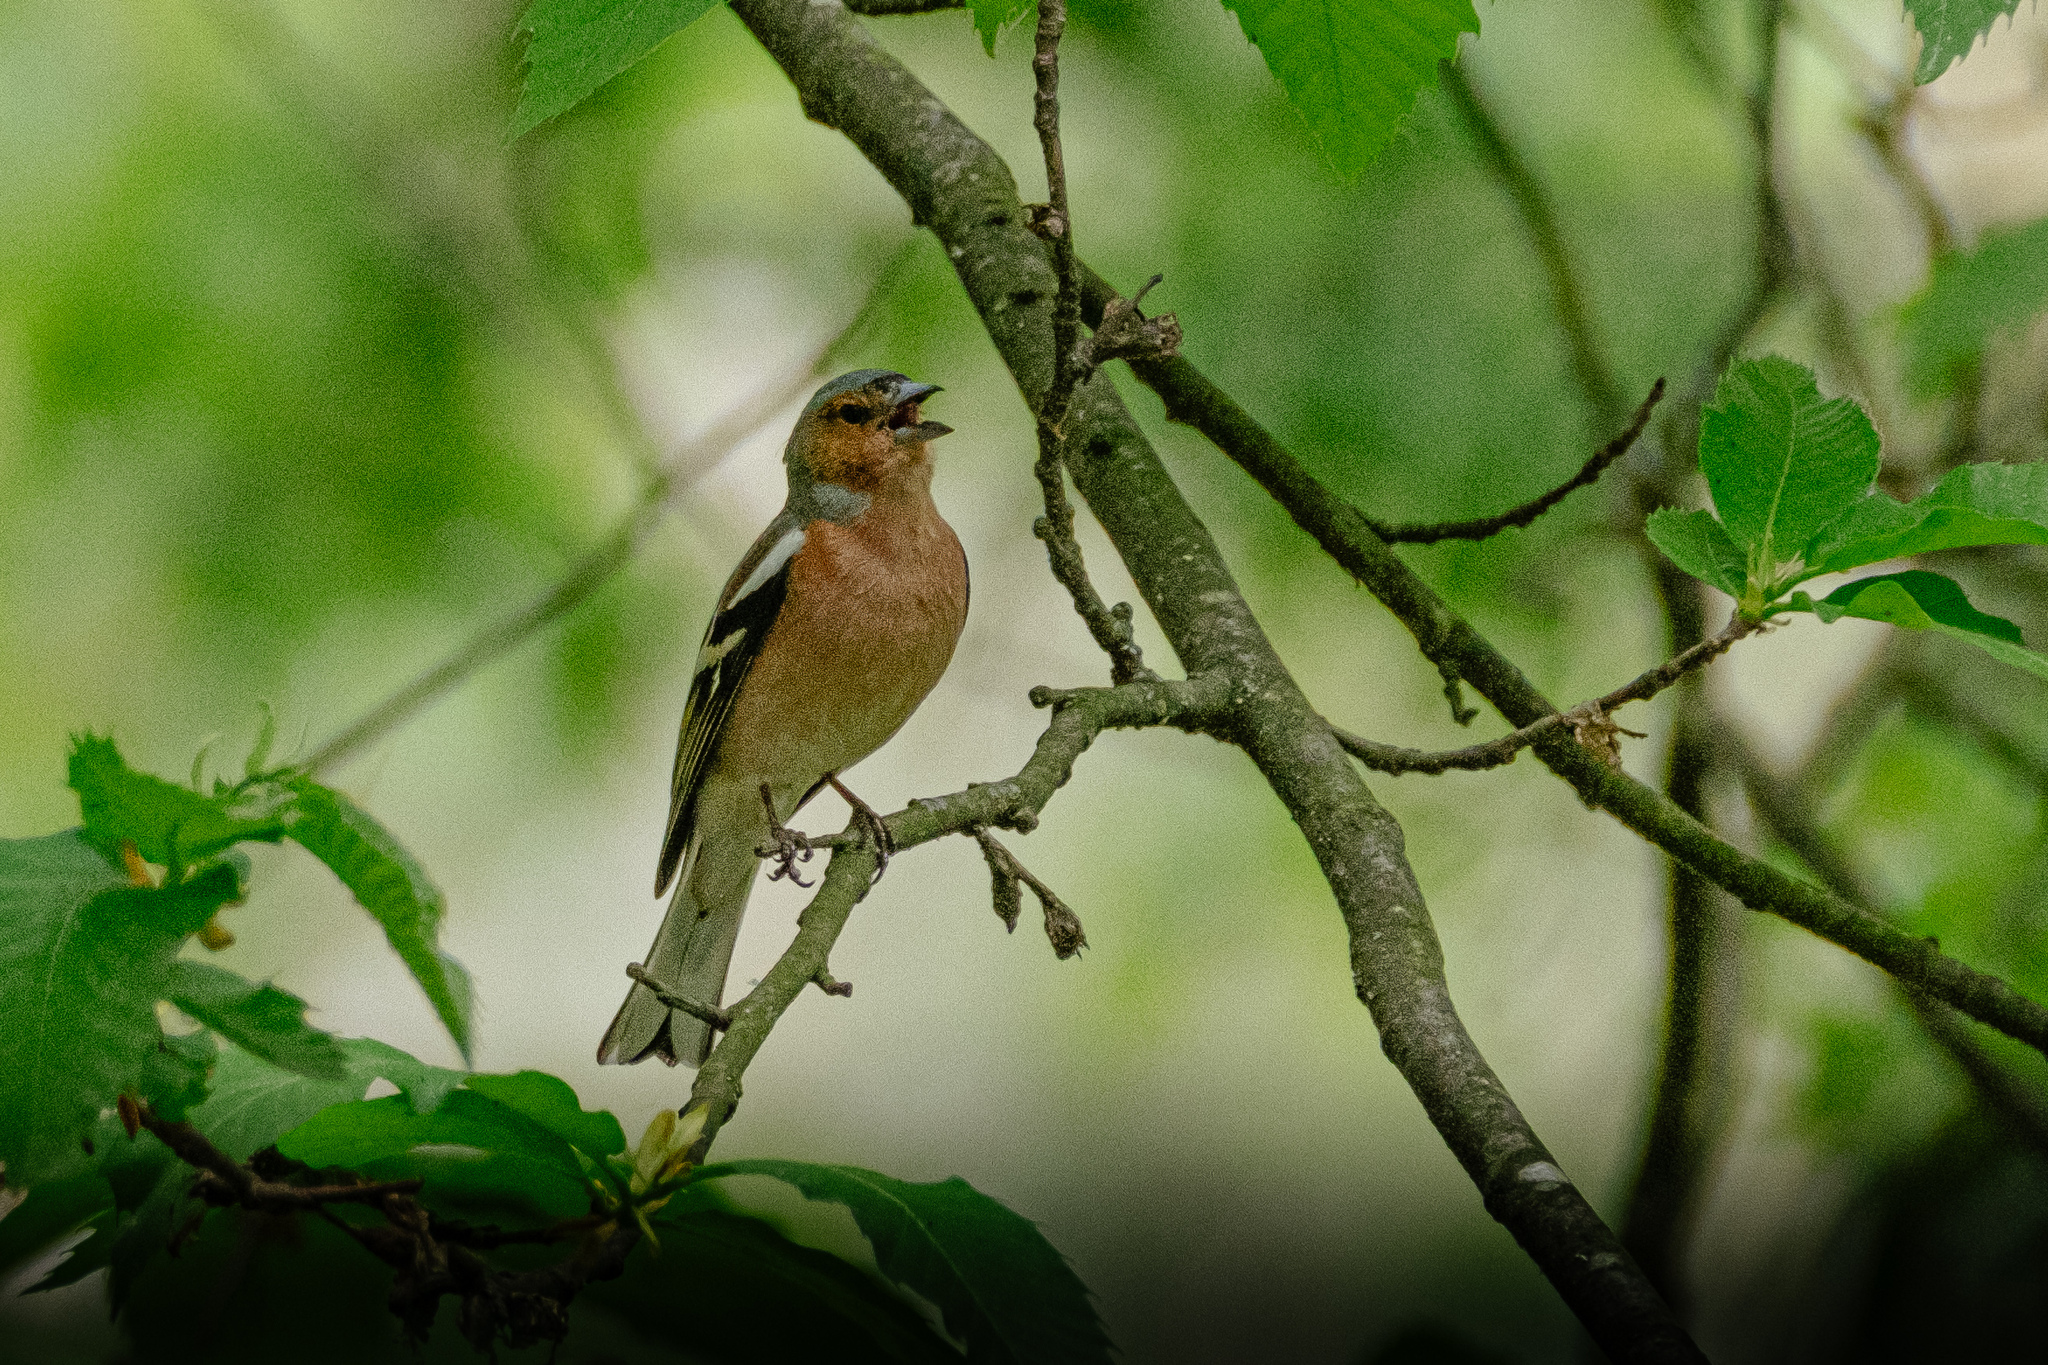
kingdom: Animalia
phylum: Chordata
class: Aves
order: Passeriformes
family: Fringillidae
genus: Fringilla
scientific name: Fringilla coelebs
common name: Common chaffinch
